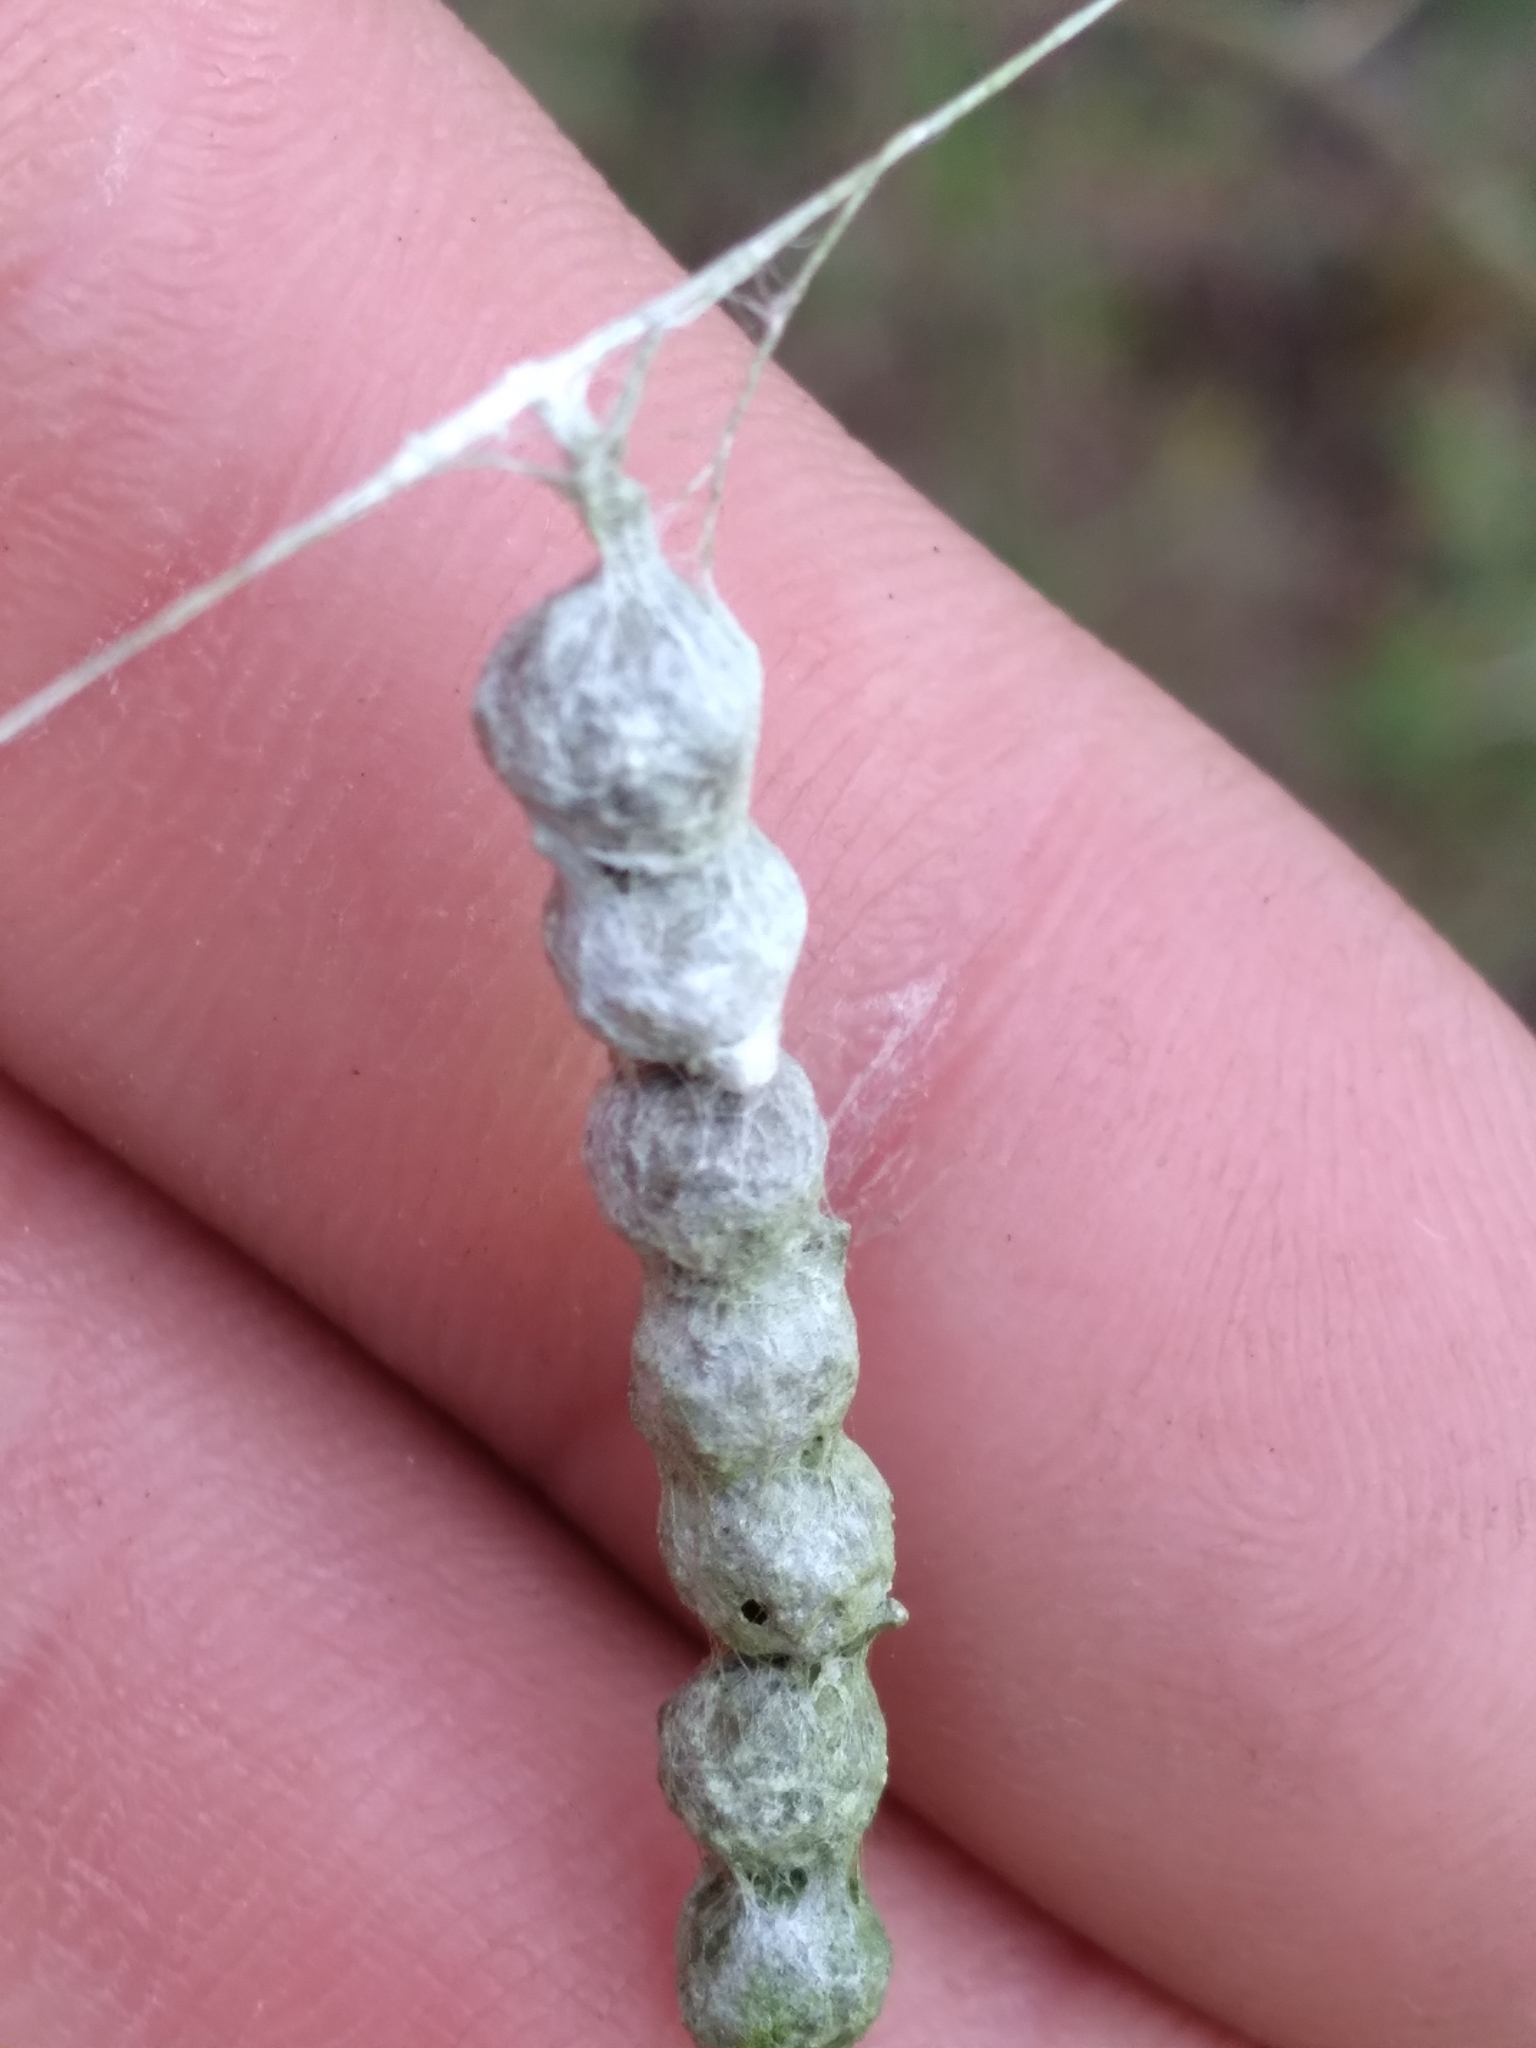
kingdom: Animalia
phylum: Arthropoda
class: Arachnida
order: Araneae
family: Araneidae
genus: Mecynogea
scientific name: Mecynogea lemniscata
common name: Orb weavers
